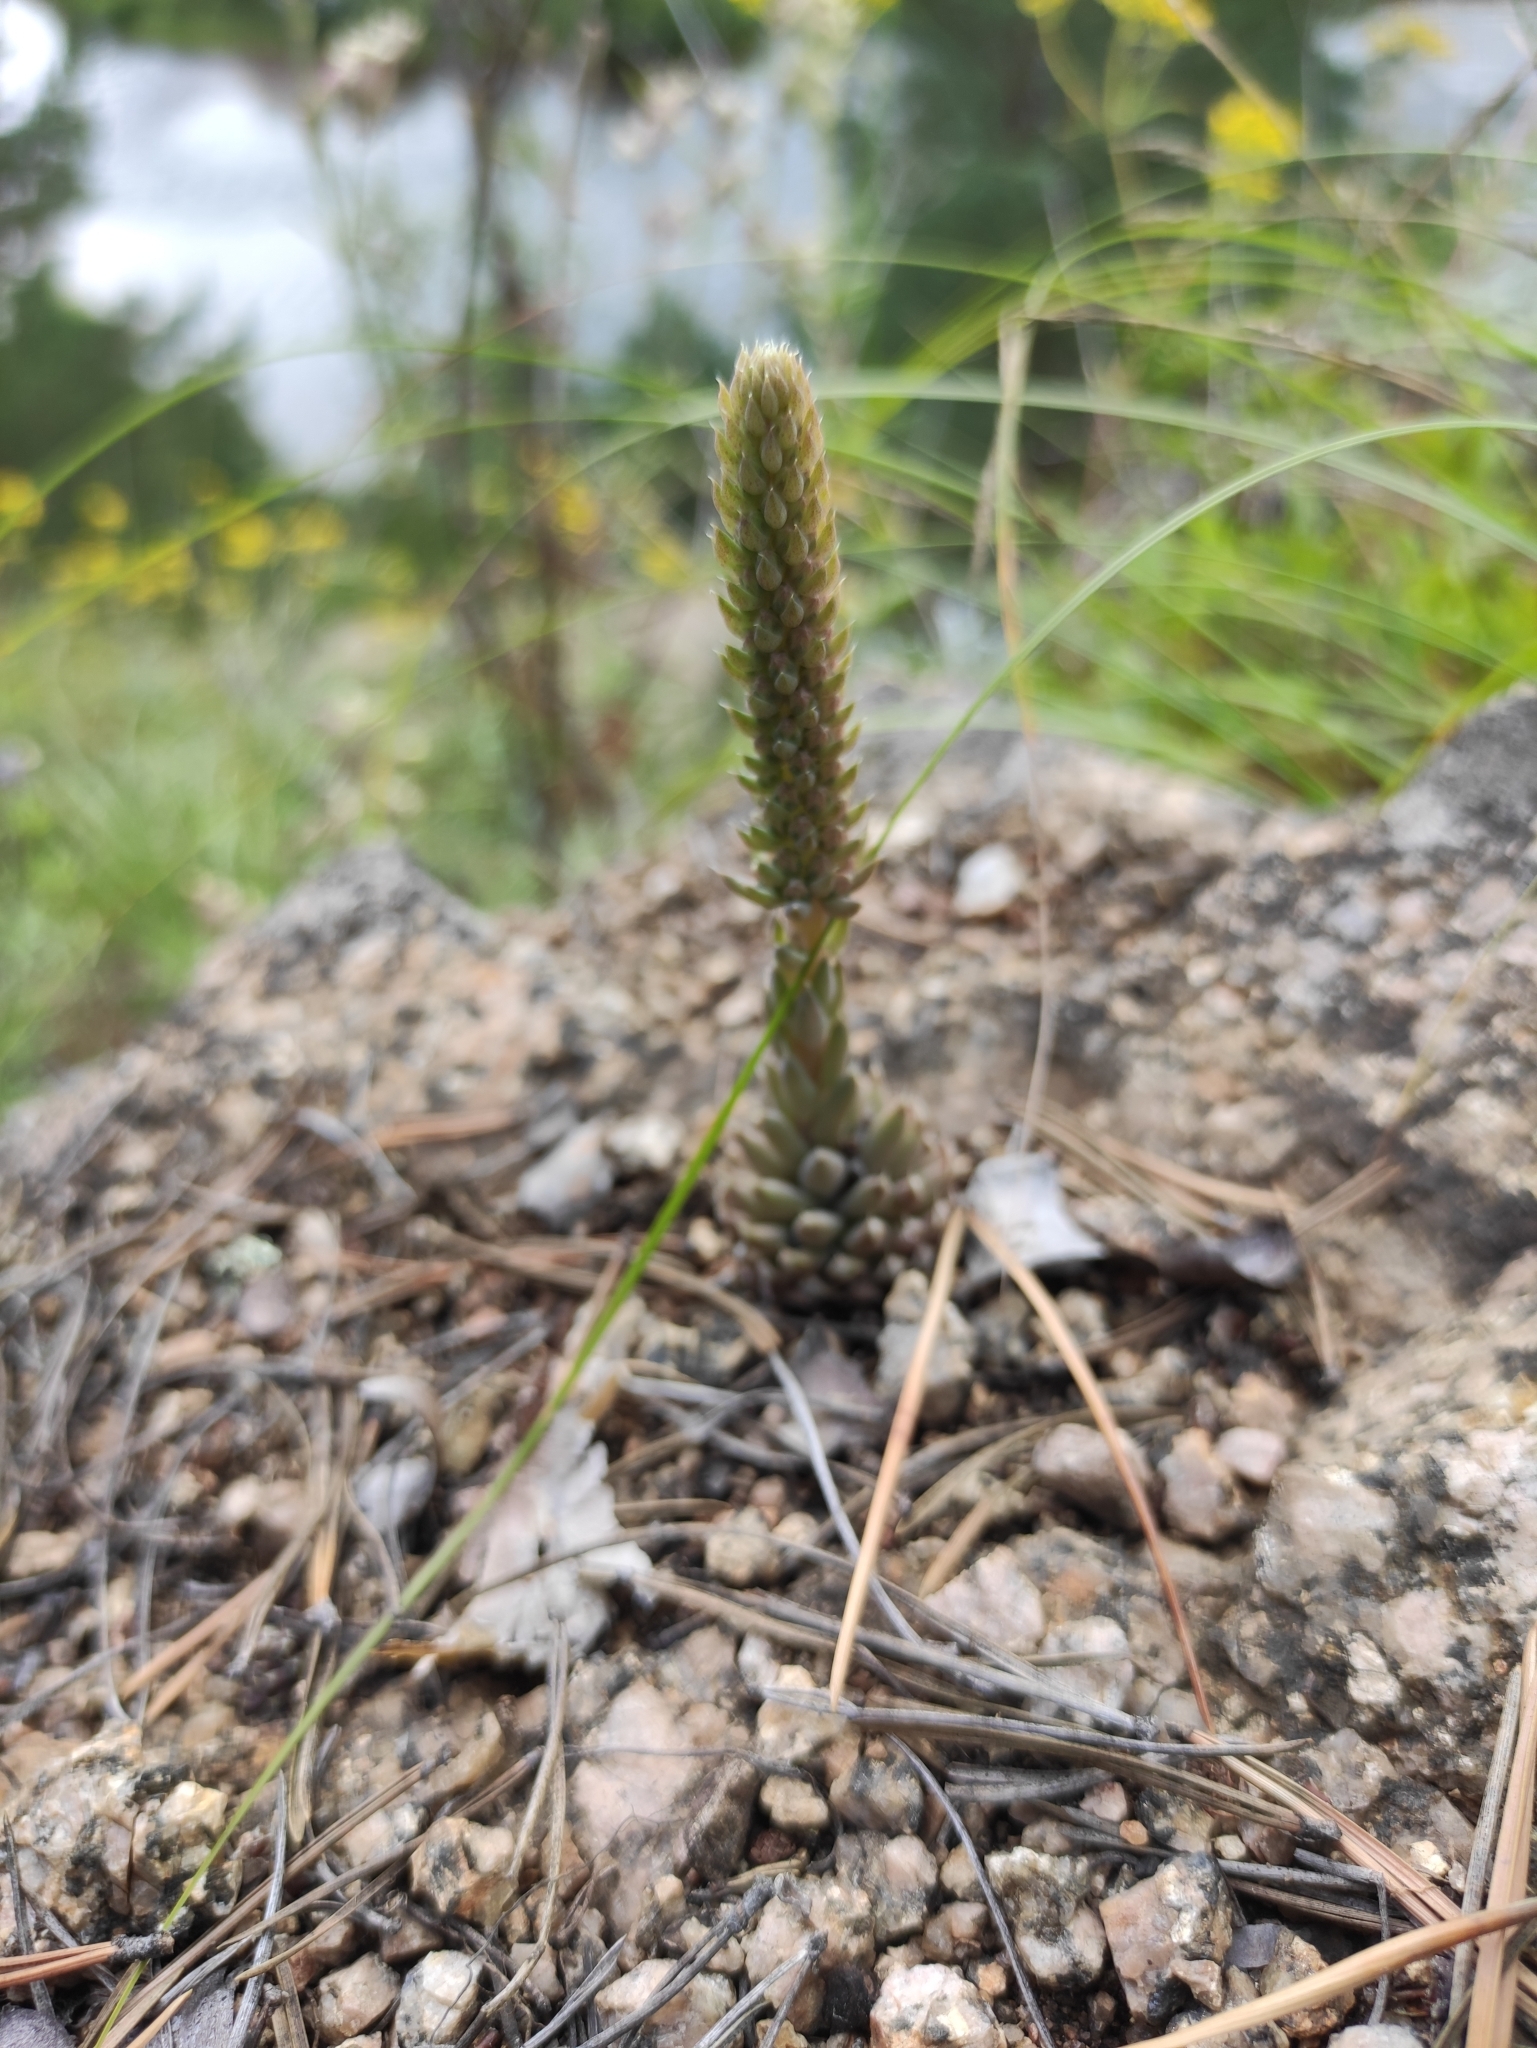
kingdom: Plantae
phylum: Tracheophyta
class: Magnoliopsida
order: Saxifragales
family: Crassulaceae
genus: Orostachys
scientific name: Orostachys spinosa
